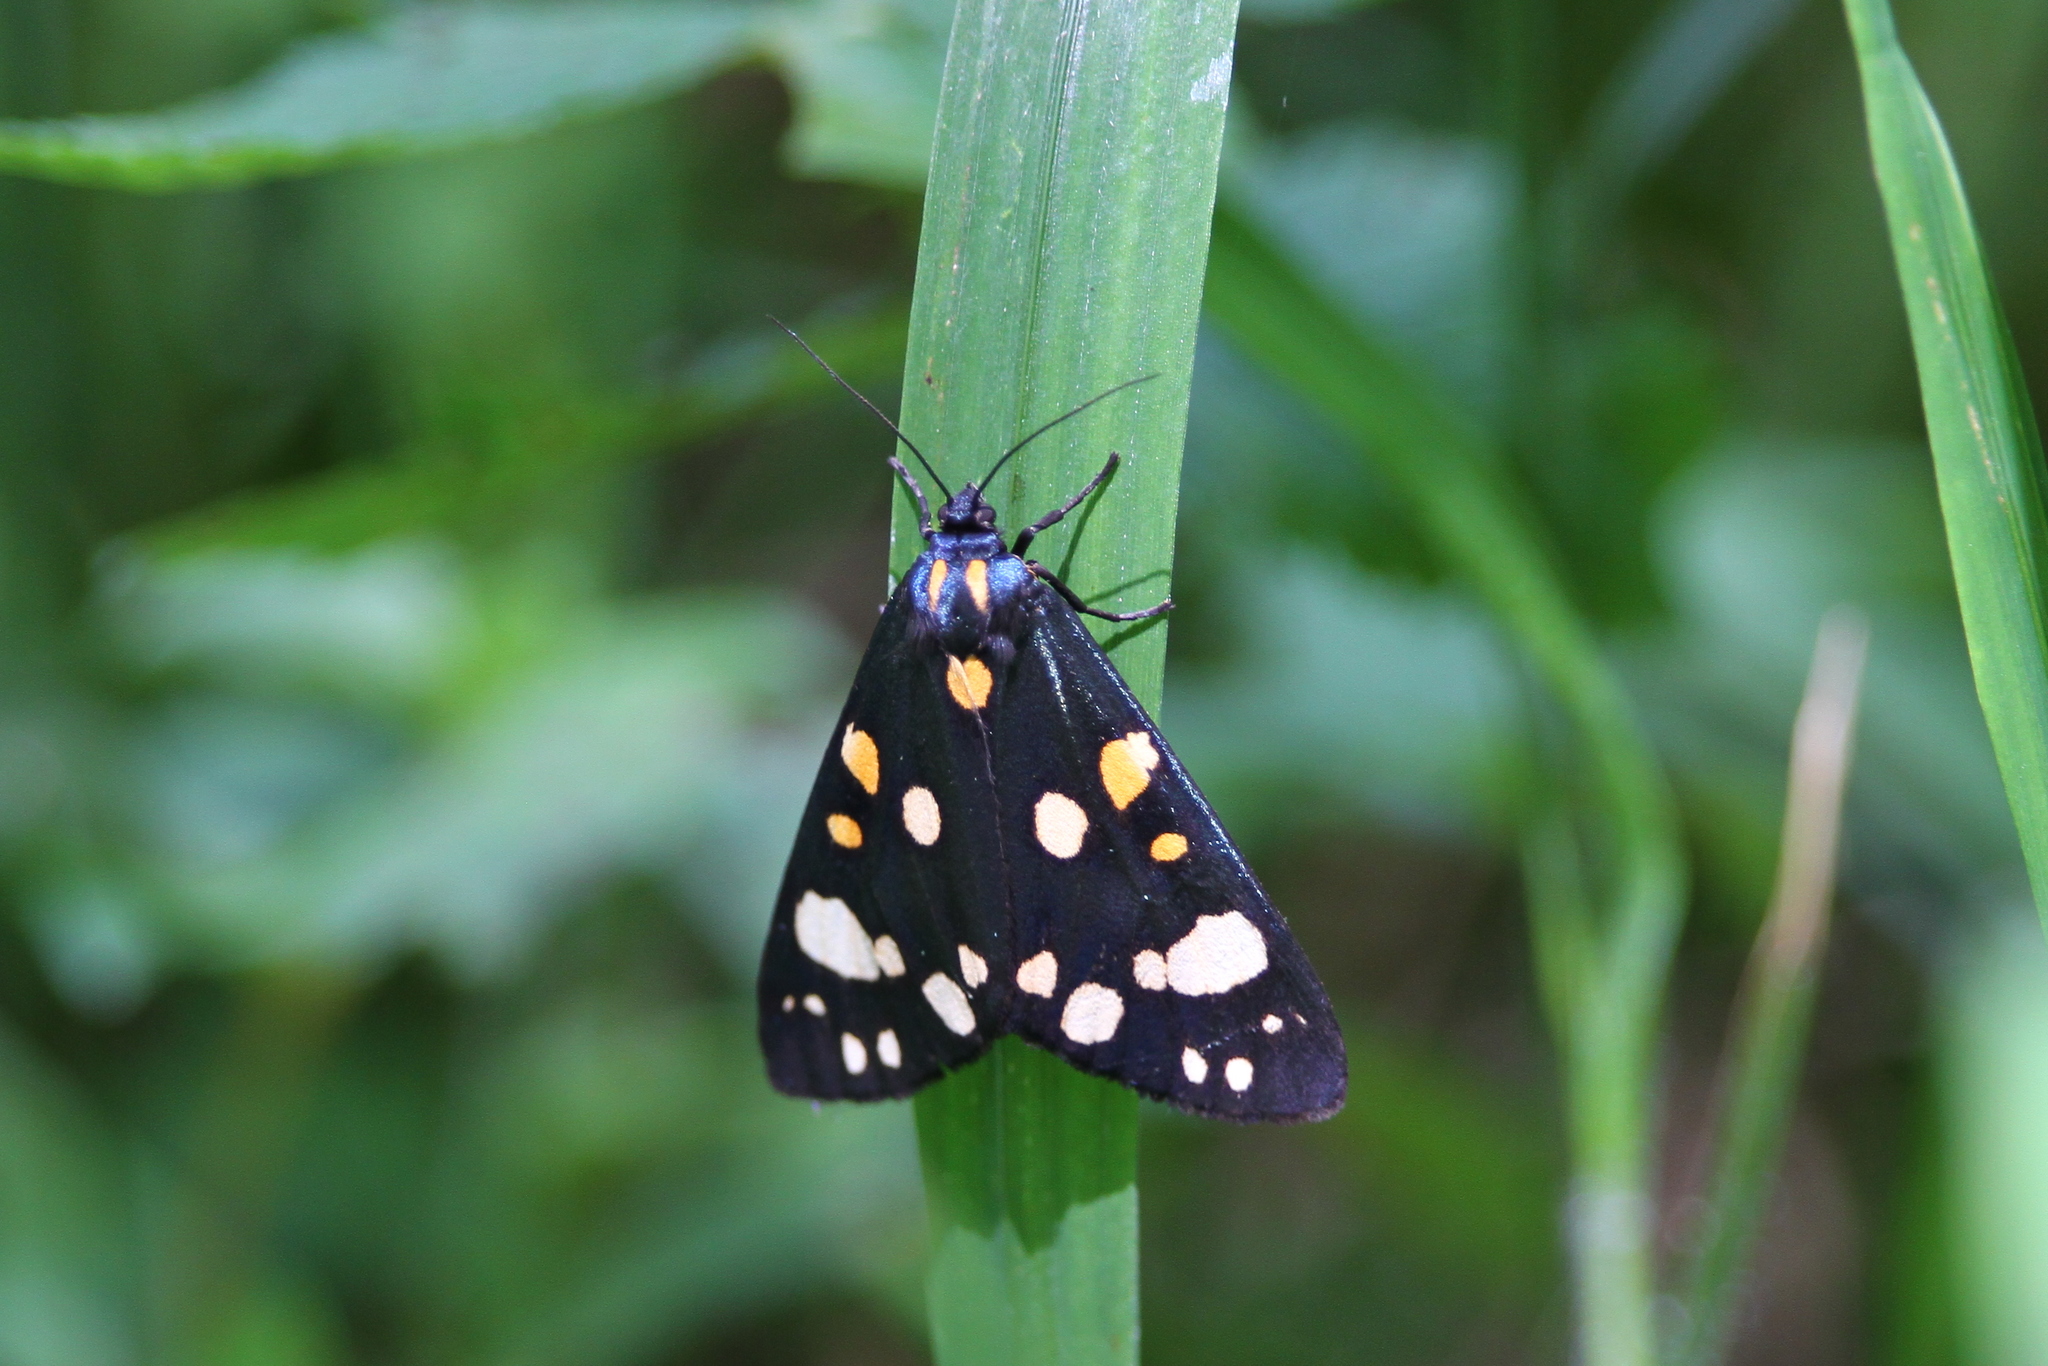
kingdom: Animalia
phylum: Arthropoda
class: Insecta
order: Lepidoptera
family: Erebidae
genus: Callimorpha
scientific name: Callimorpha dominula
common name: Scarlet tiger
